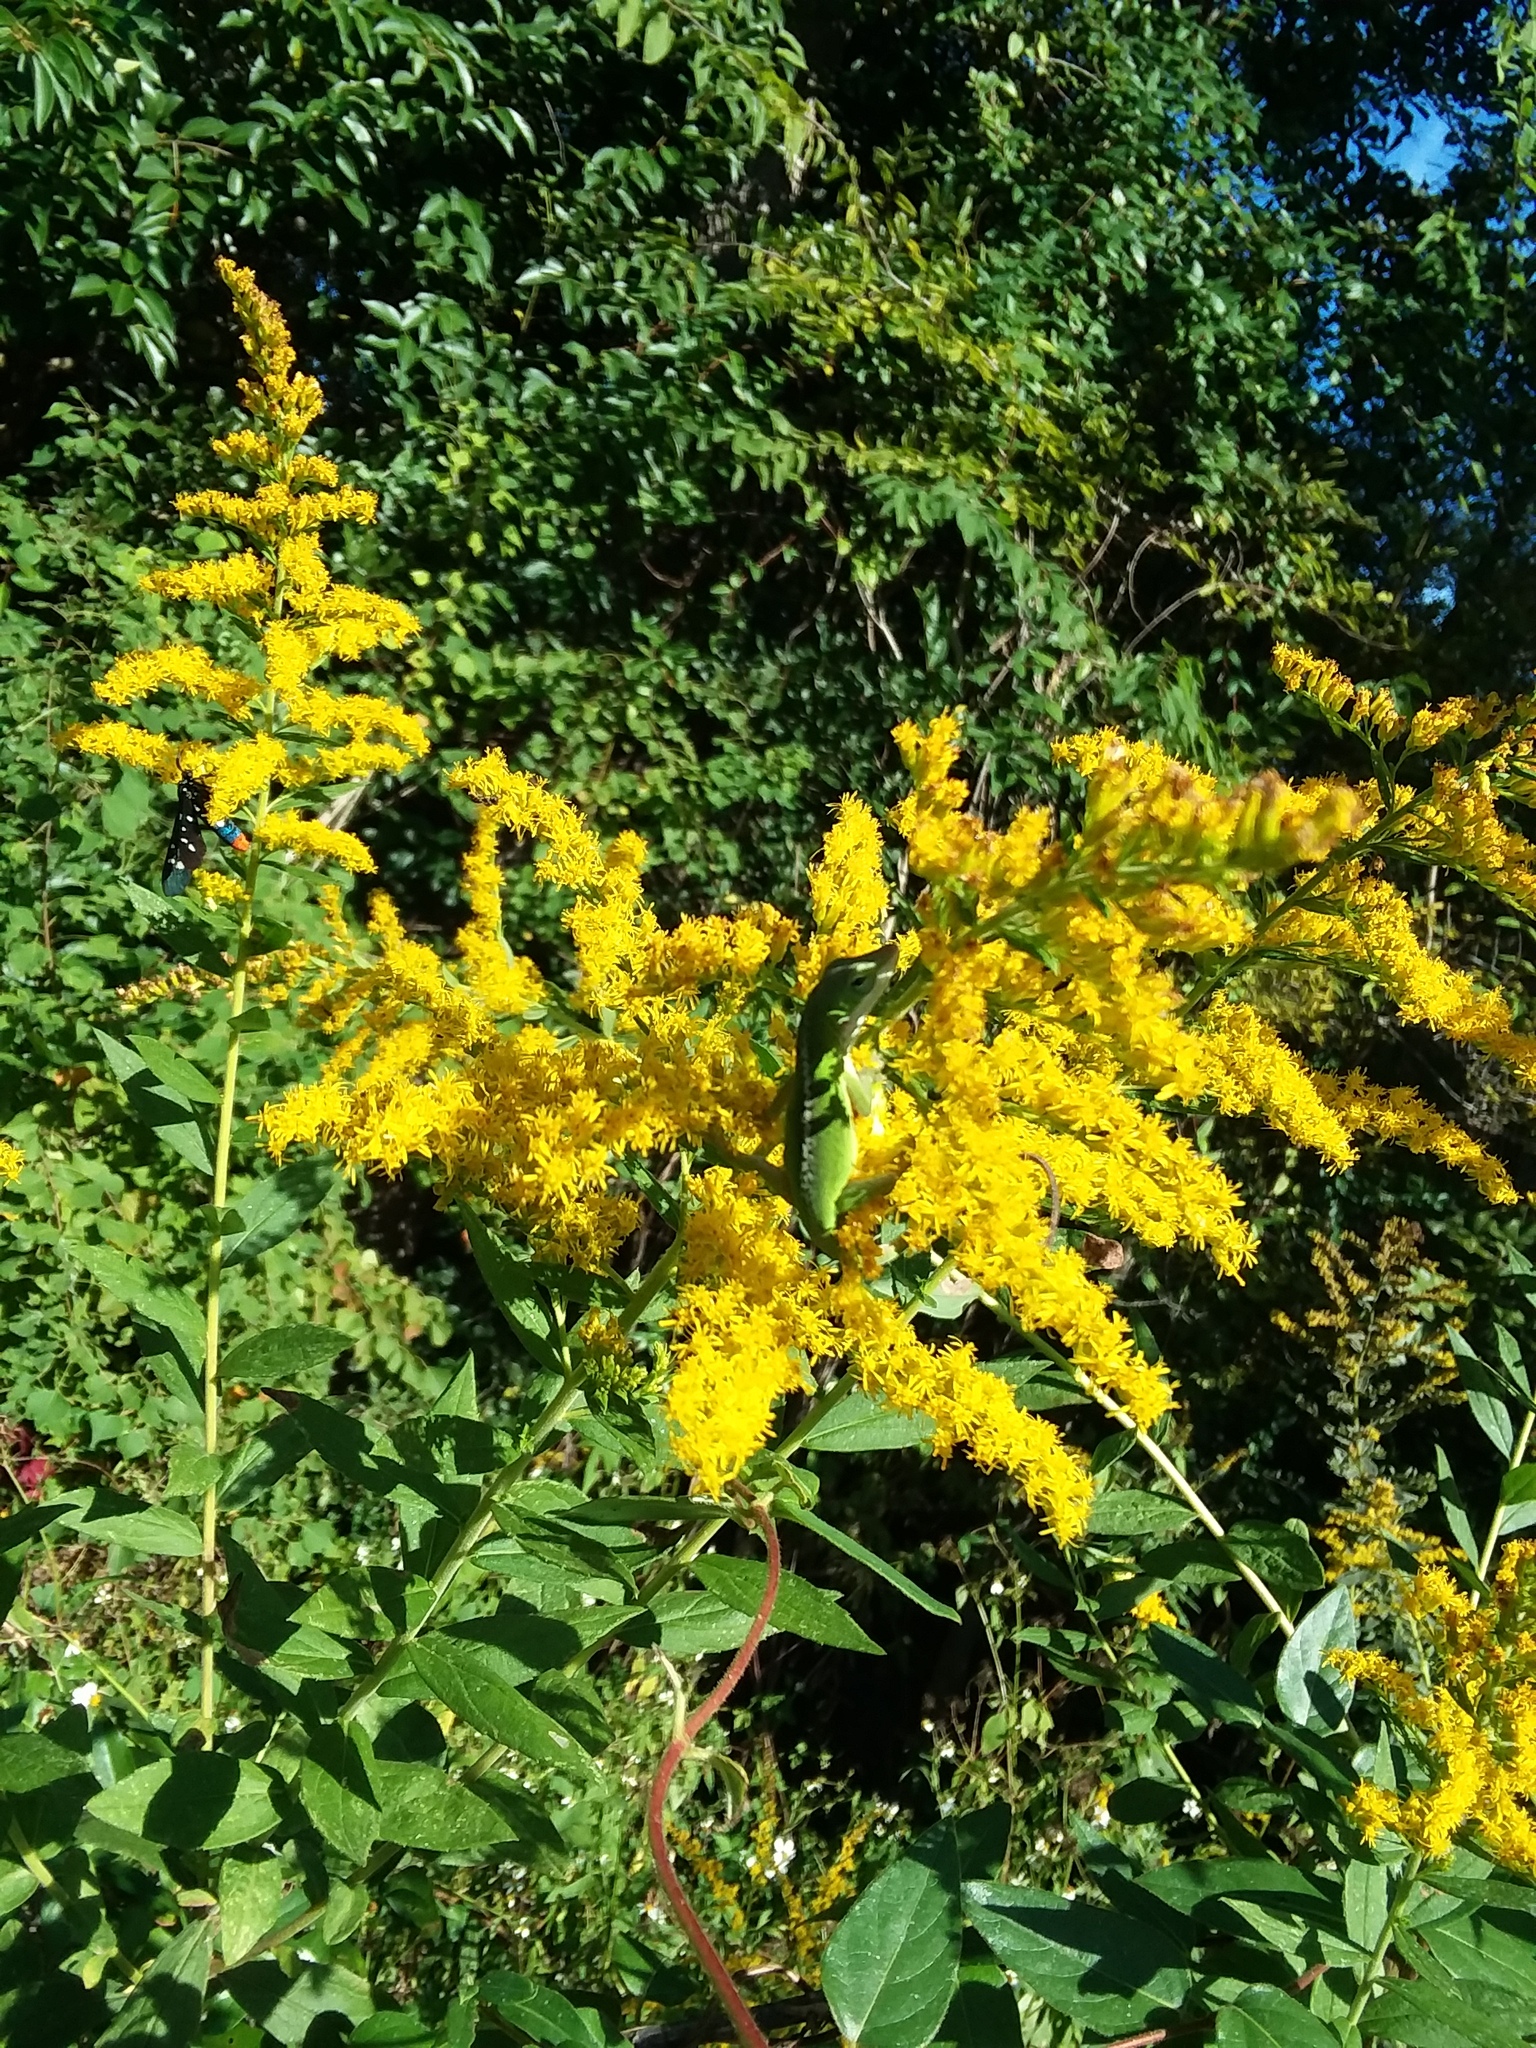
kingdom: Animalia
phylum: Chordata
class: Squamata
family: Dactyloidae
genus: Anolis
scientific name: Anolis carolinensis
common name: Green anole
